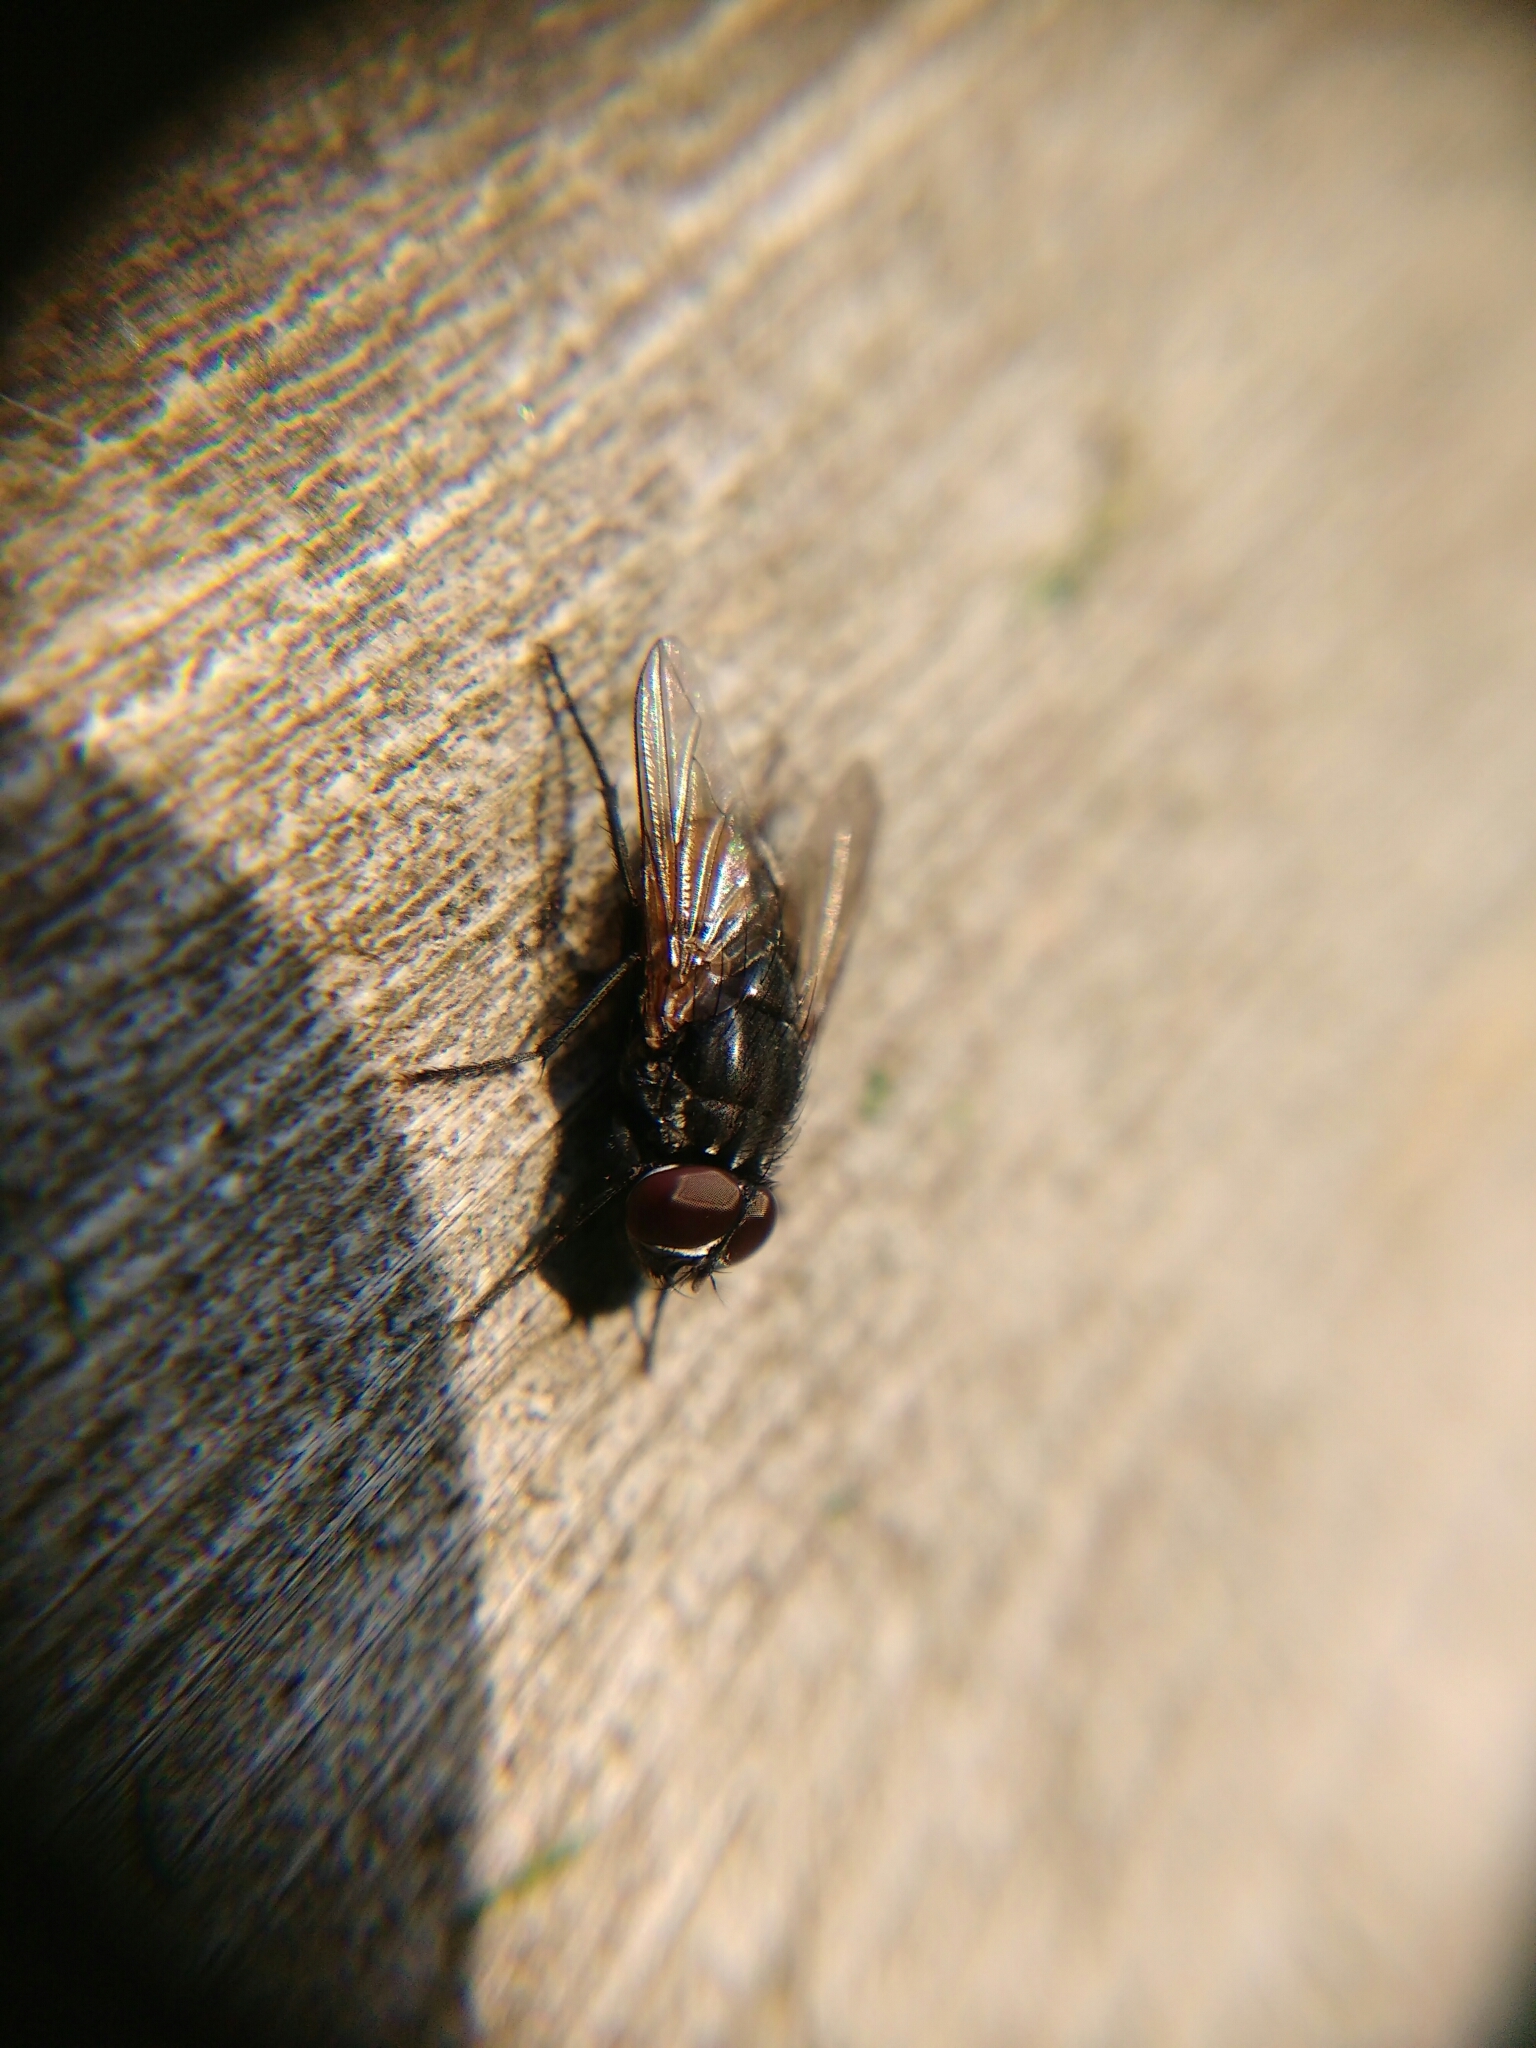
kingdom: Animalia
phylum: Arthropoda
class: Insecta
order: Diptera
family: Muscidae
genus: Musca
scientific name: Musca autumnalis
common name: Face fly
